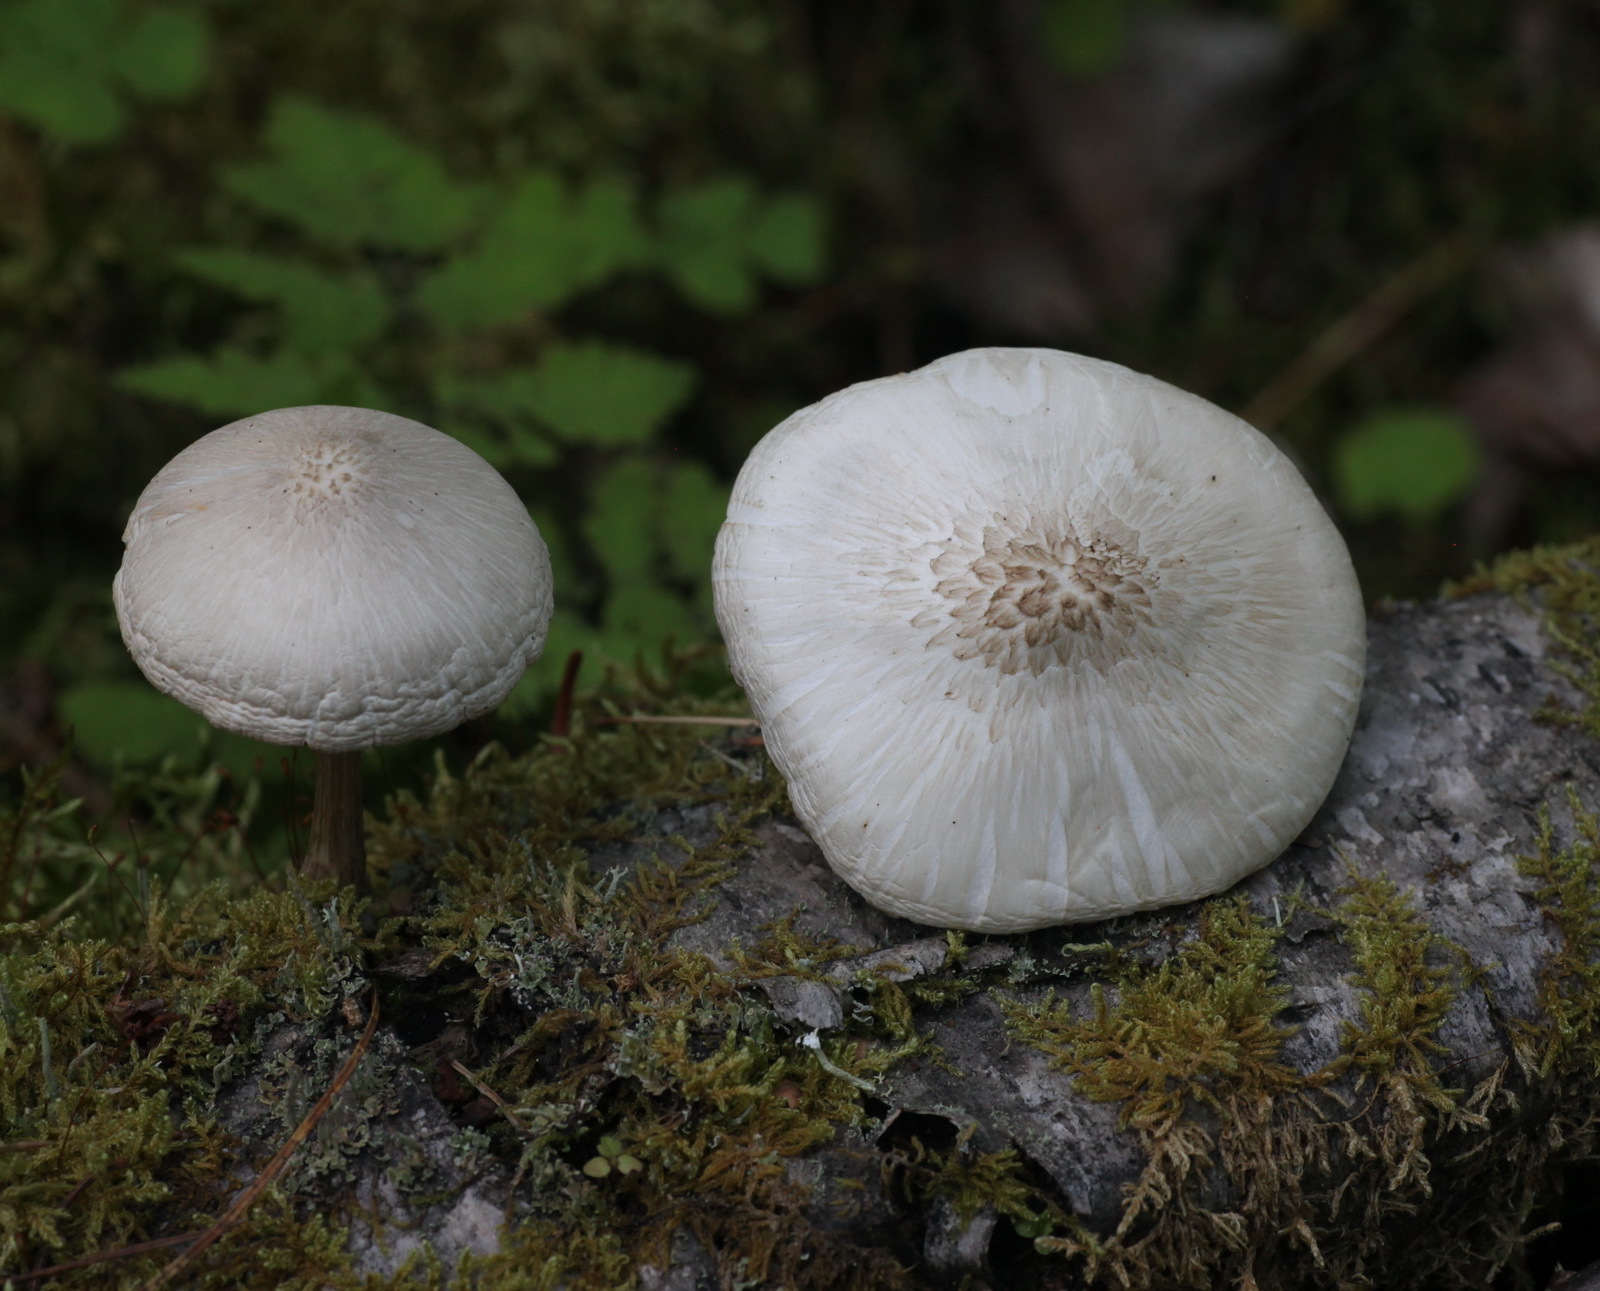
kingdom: Fungi
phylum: Basidiomycota
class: Agaricomycetes
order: Agaricales
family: Pluteaceae
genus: Pluteus
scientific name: Pluteus petasatus
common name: Scaly shield
